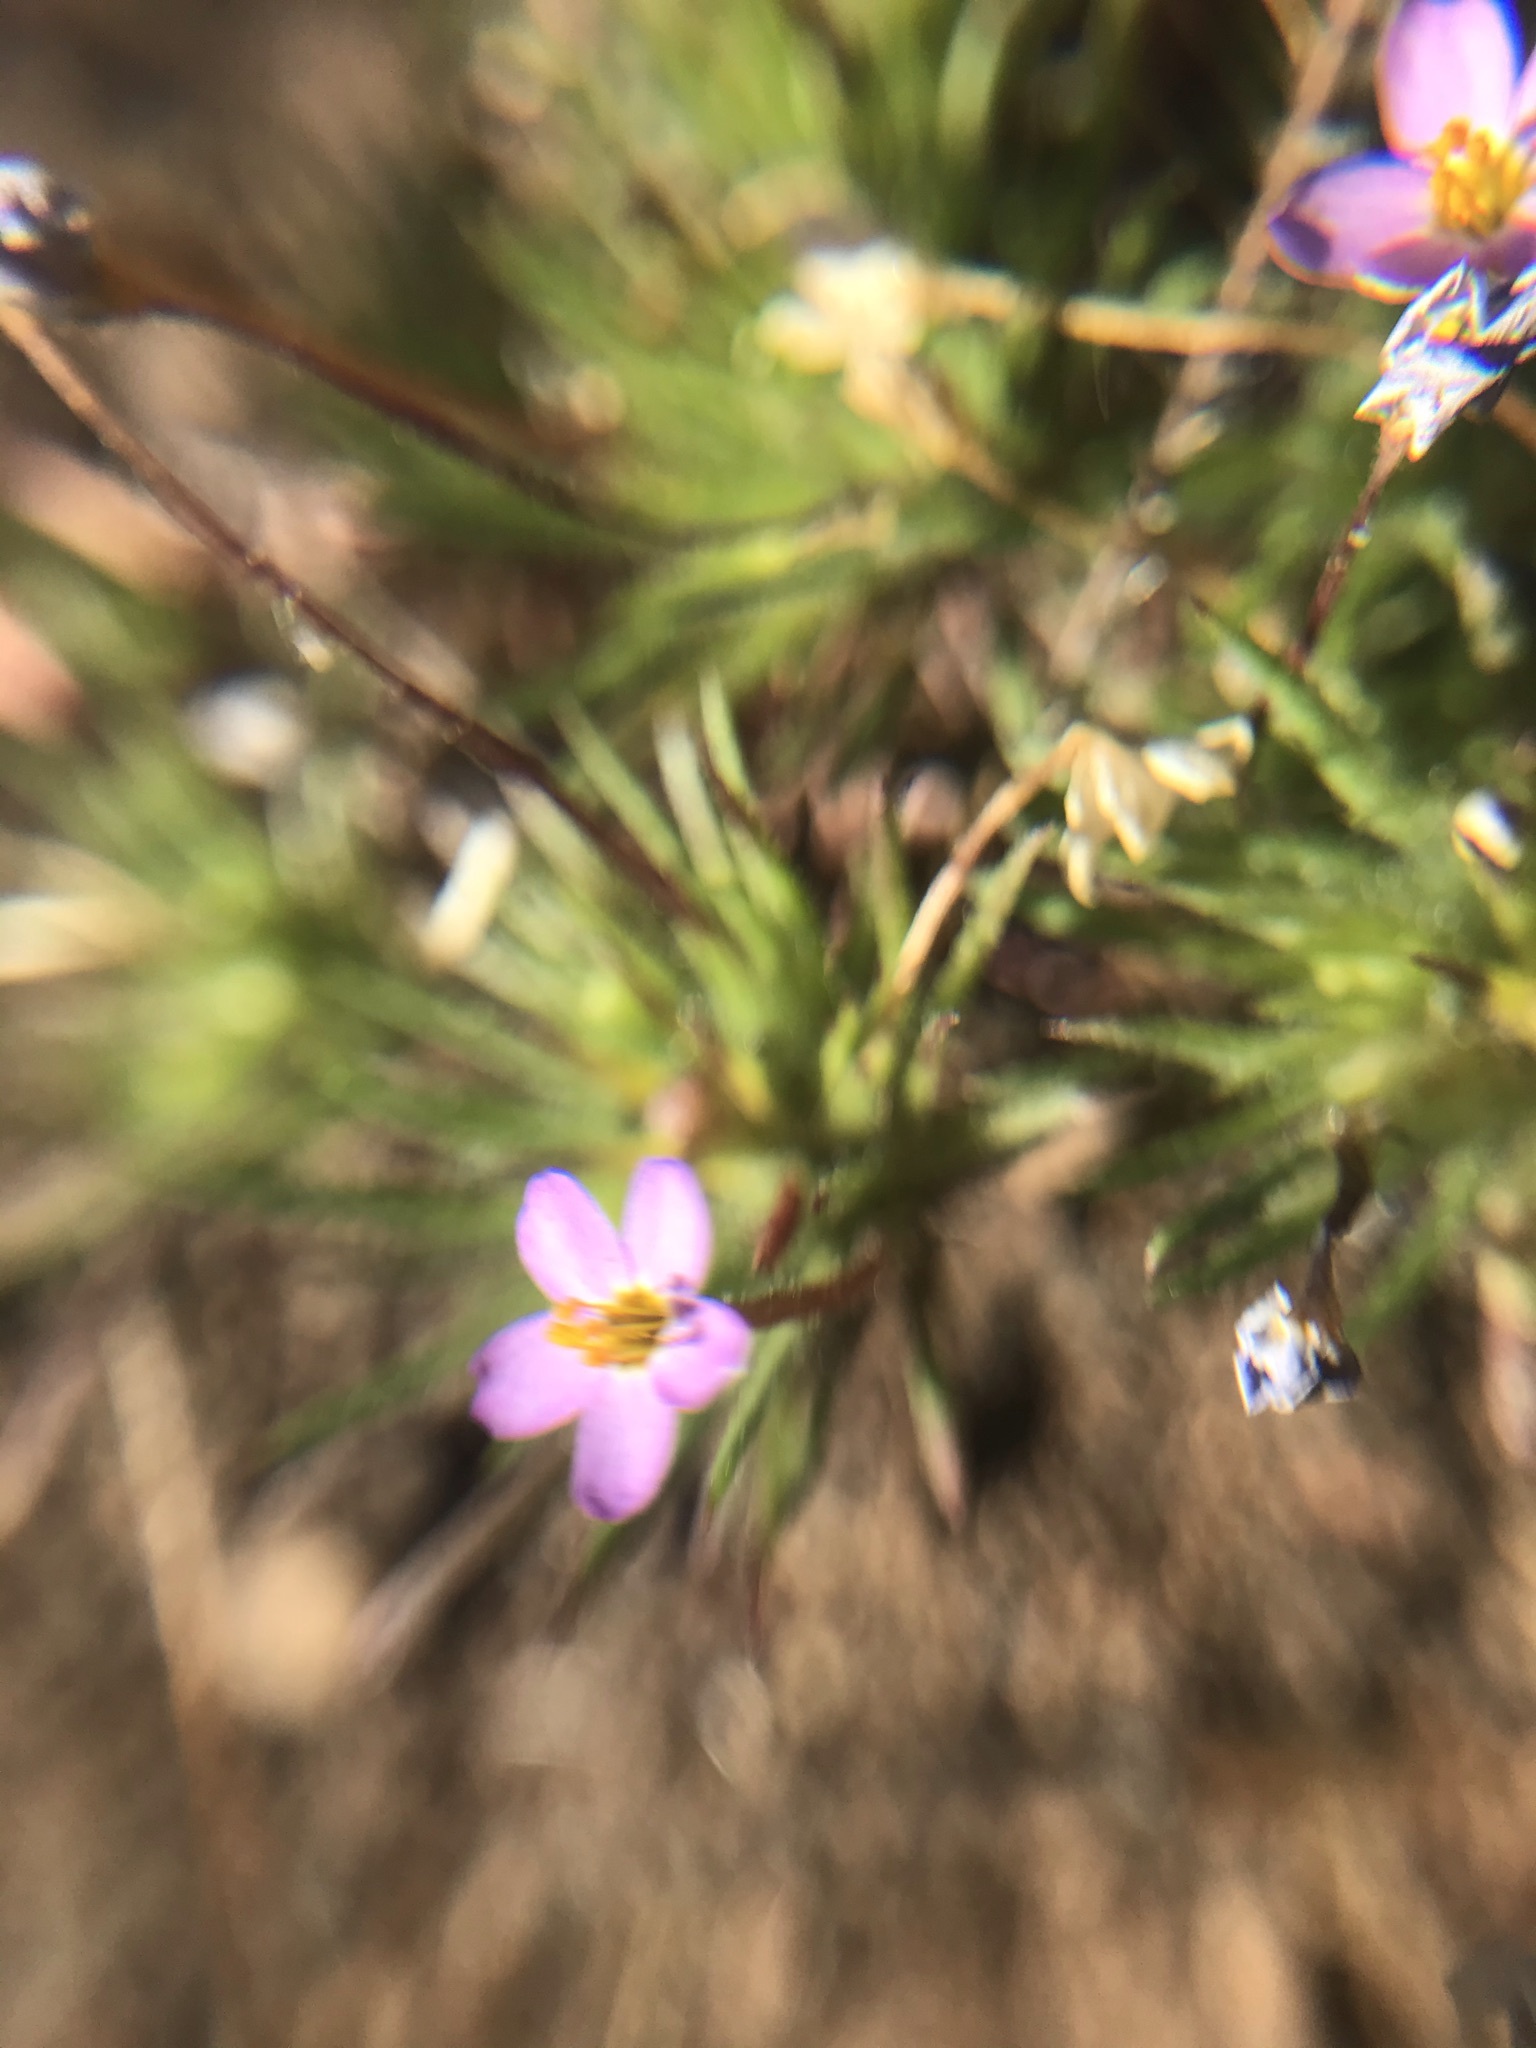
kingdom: Plantae
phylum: Tracheophyta
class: Magnoliopsida
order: Ericales
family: Polemoniaceae
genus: Leptosiphon
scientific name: Leptosiphon bicolor
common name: True babystars
